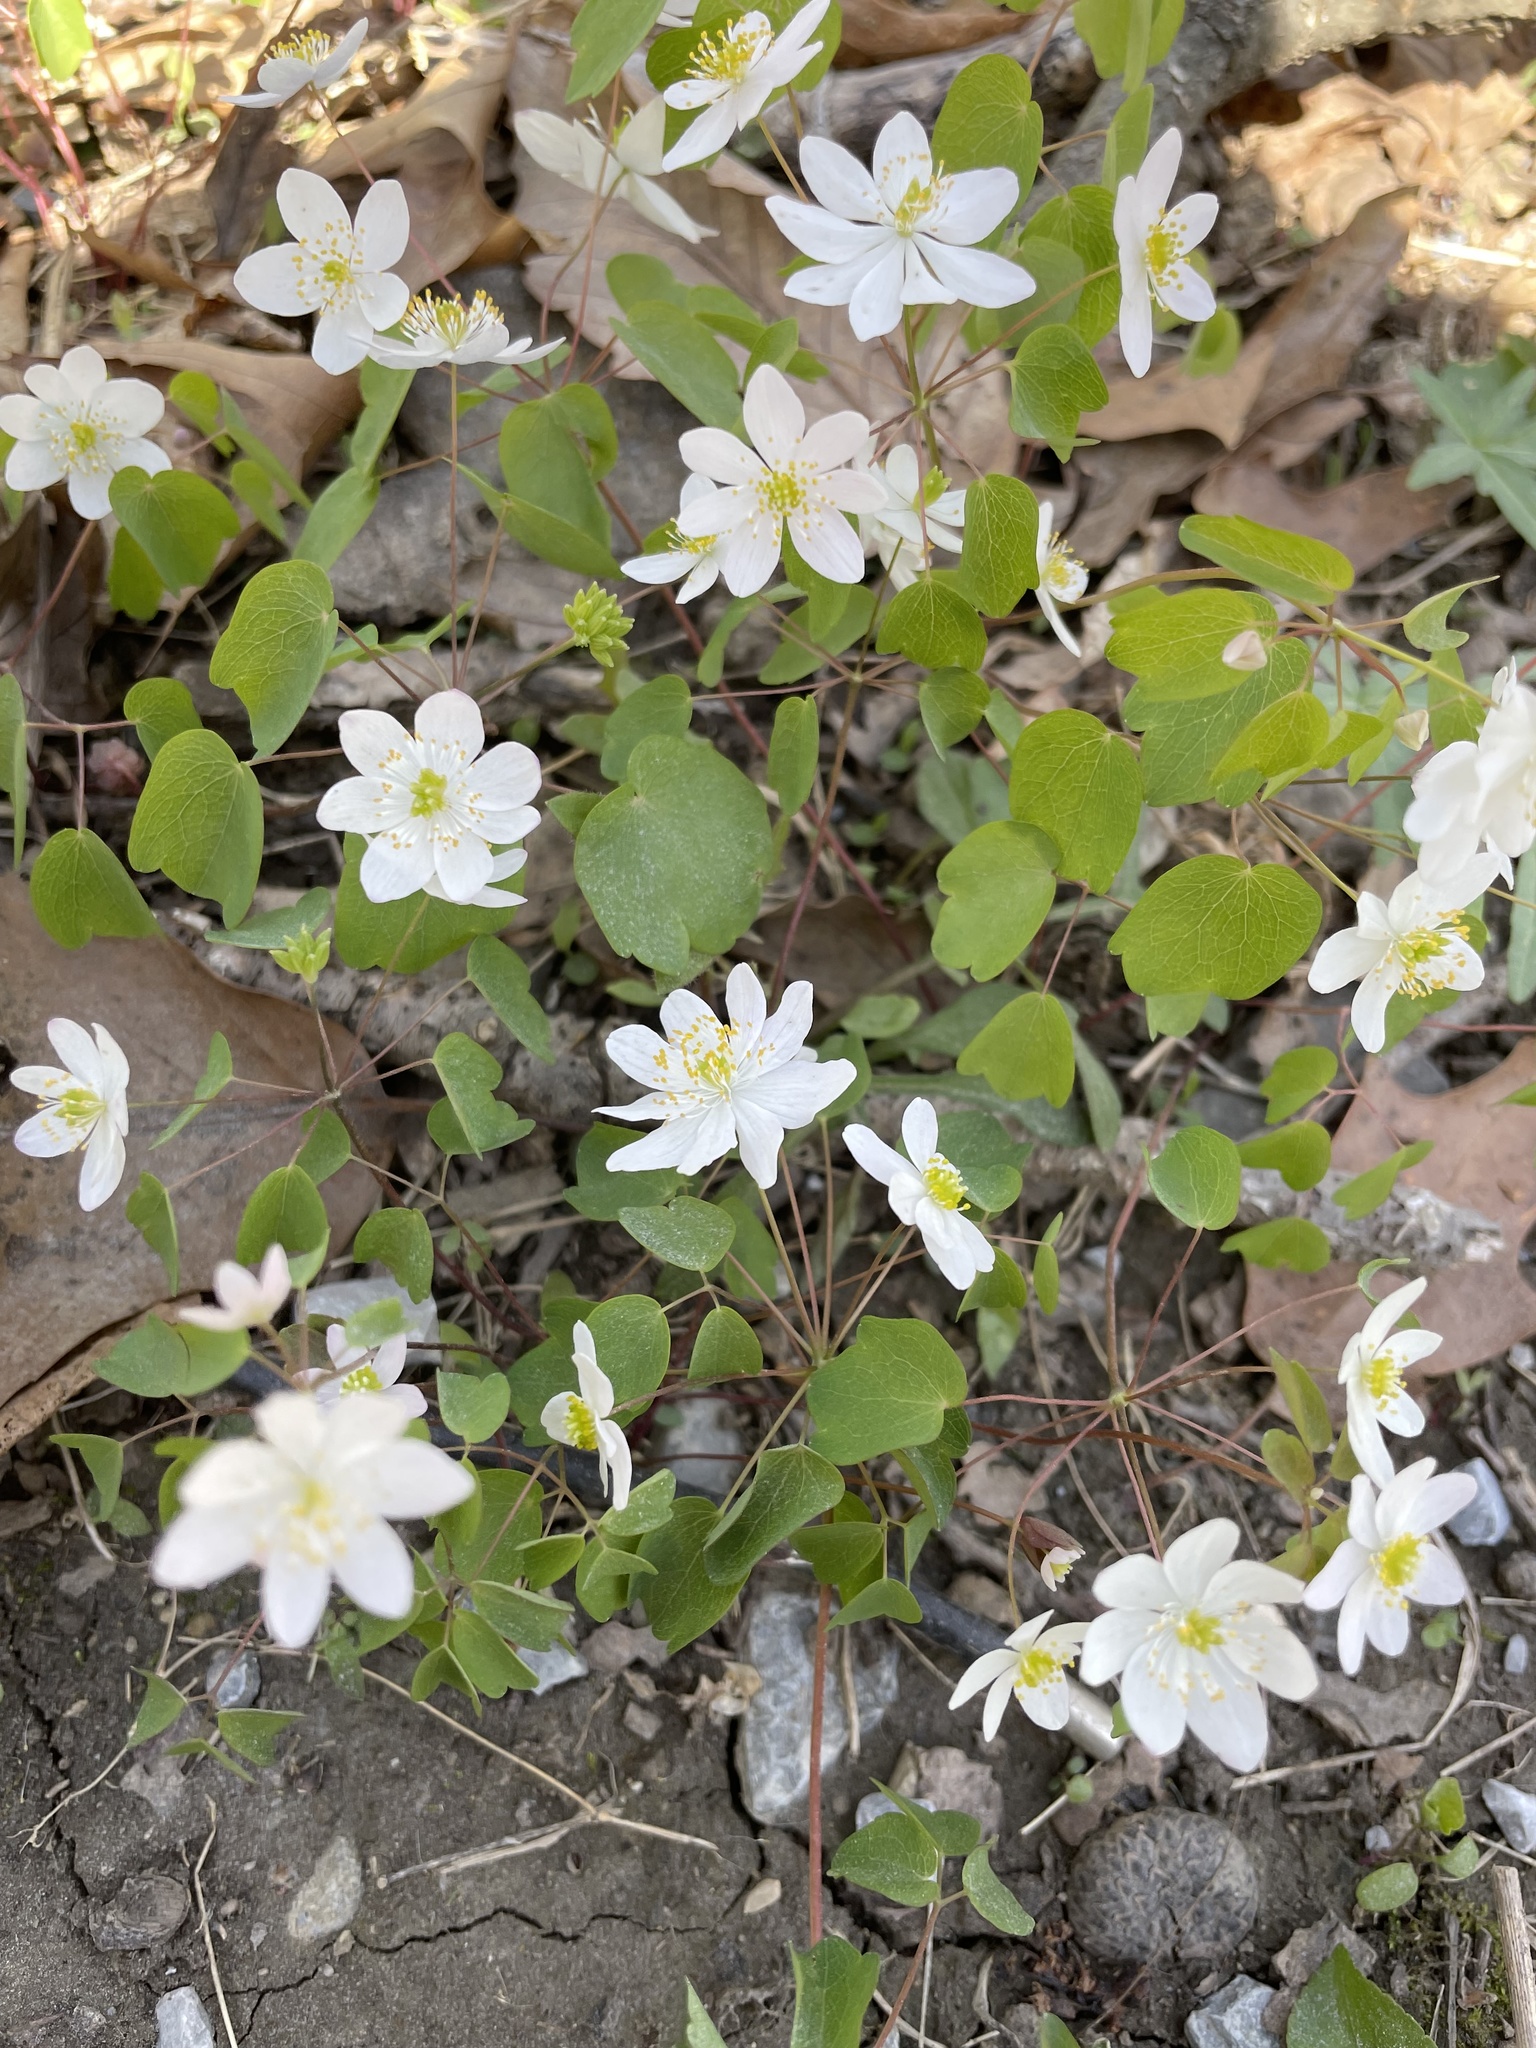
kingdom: Plantae
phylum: Tracheophyta
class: Magnoliopsida
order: Ranunculales
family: Ranunculaceae
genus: Thalictrum
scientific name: Thalictrum thalictroides
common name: Rue-anemone
